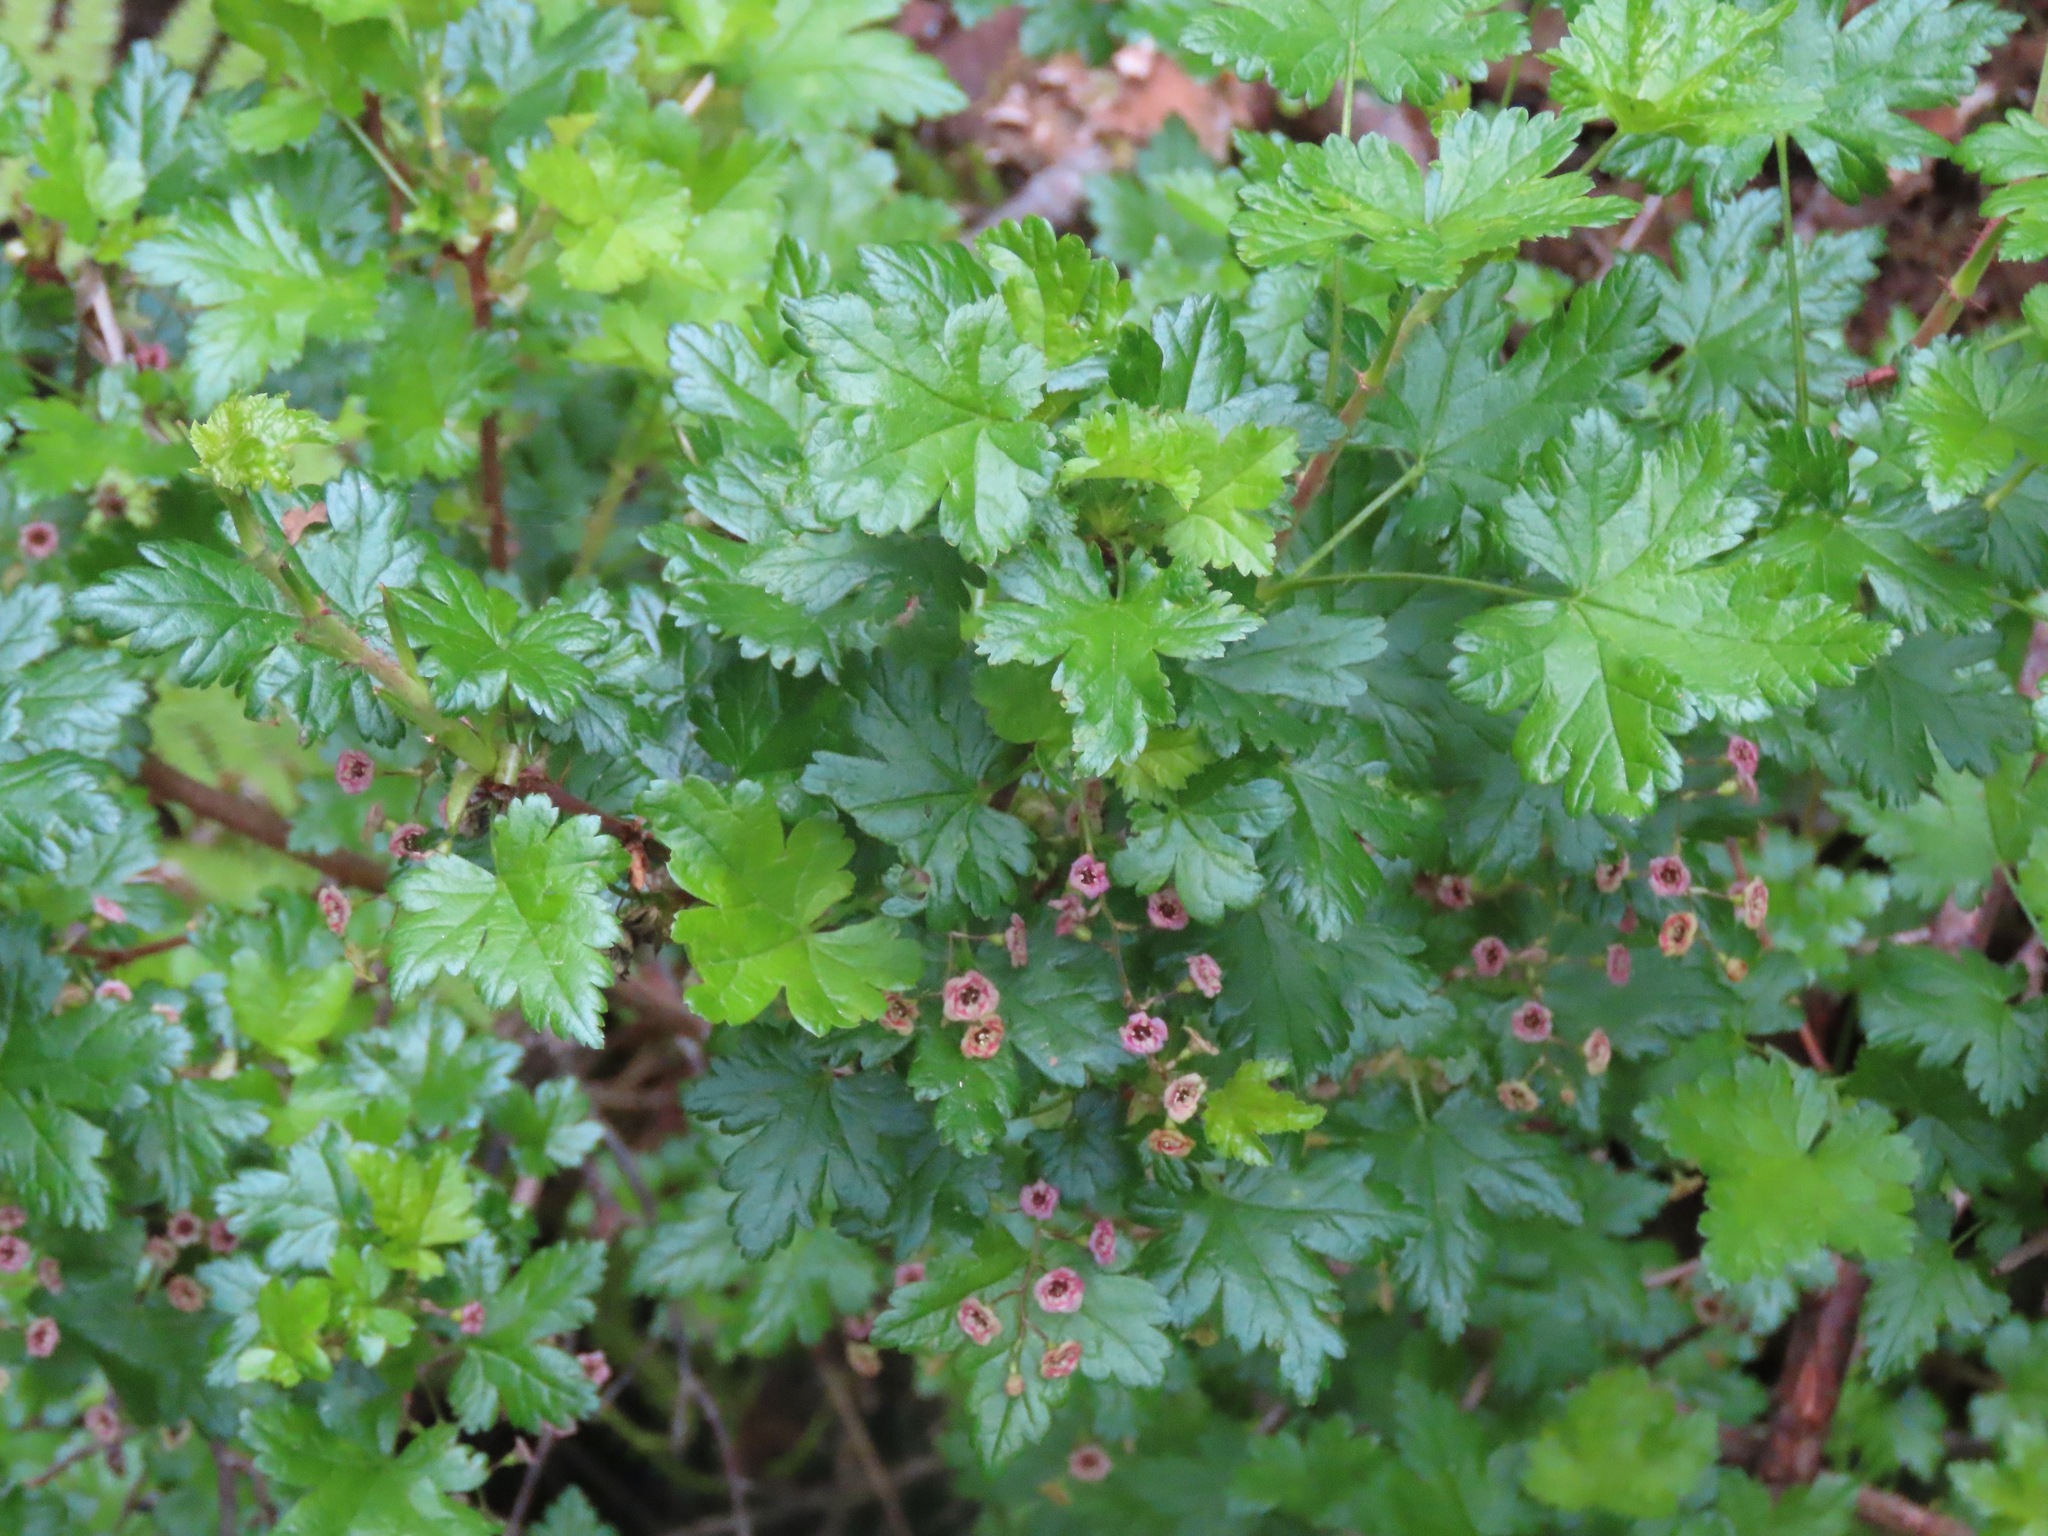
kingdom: Plantae
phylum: Tracheophyta
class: Magnoliopsida
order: Saxifragales
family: Grossulariaceae
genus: Ribes
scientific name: Ribes lacustre
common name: Black gooseberry
